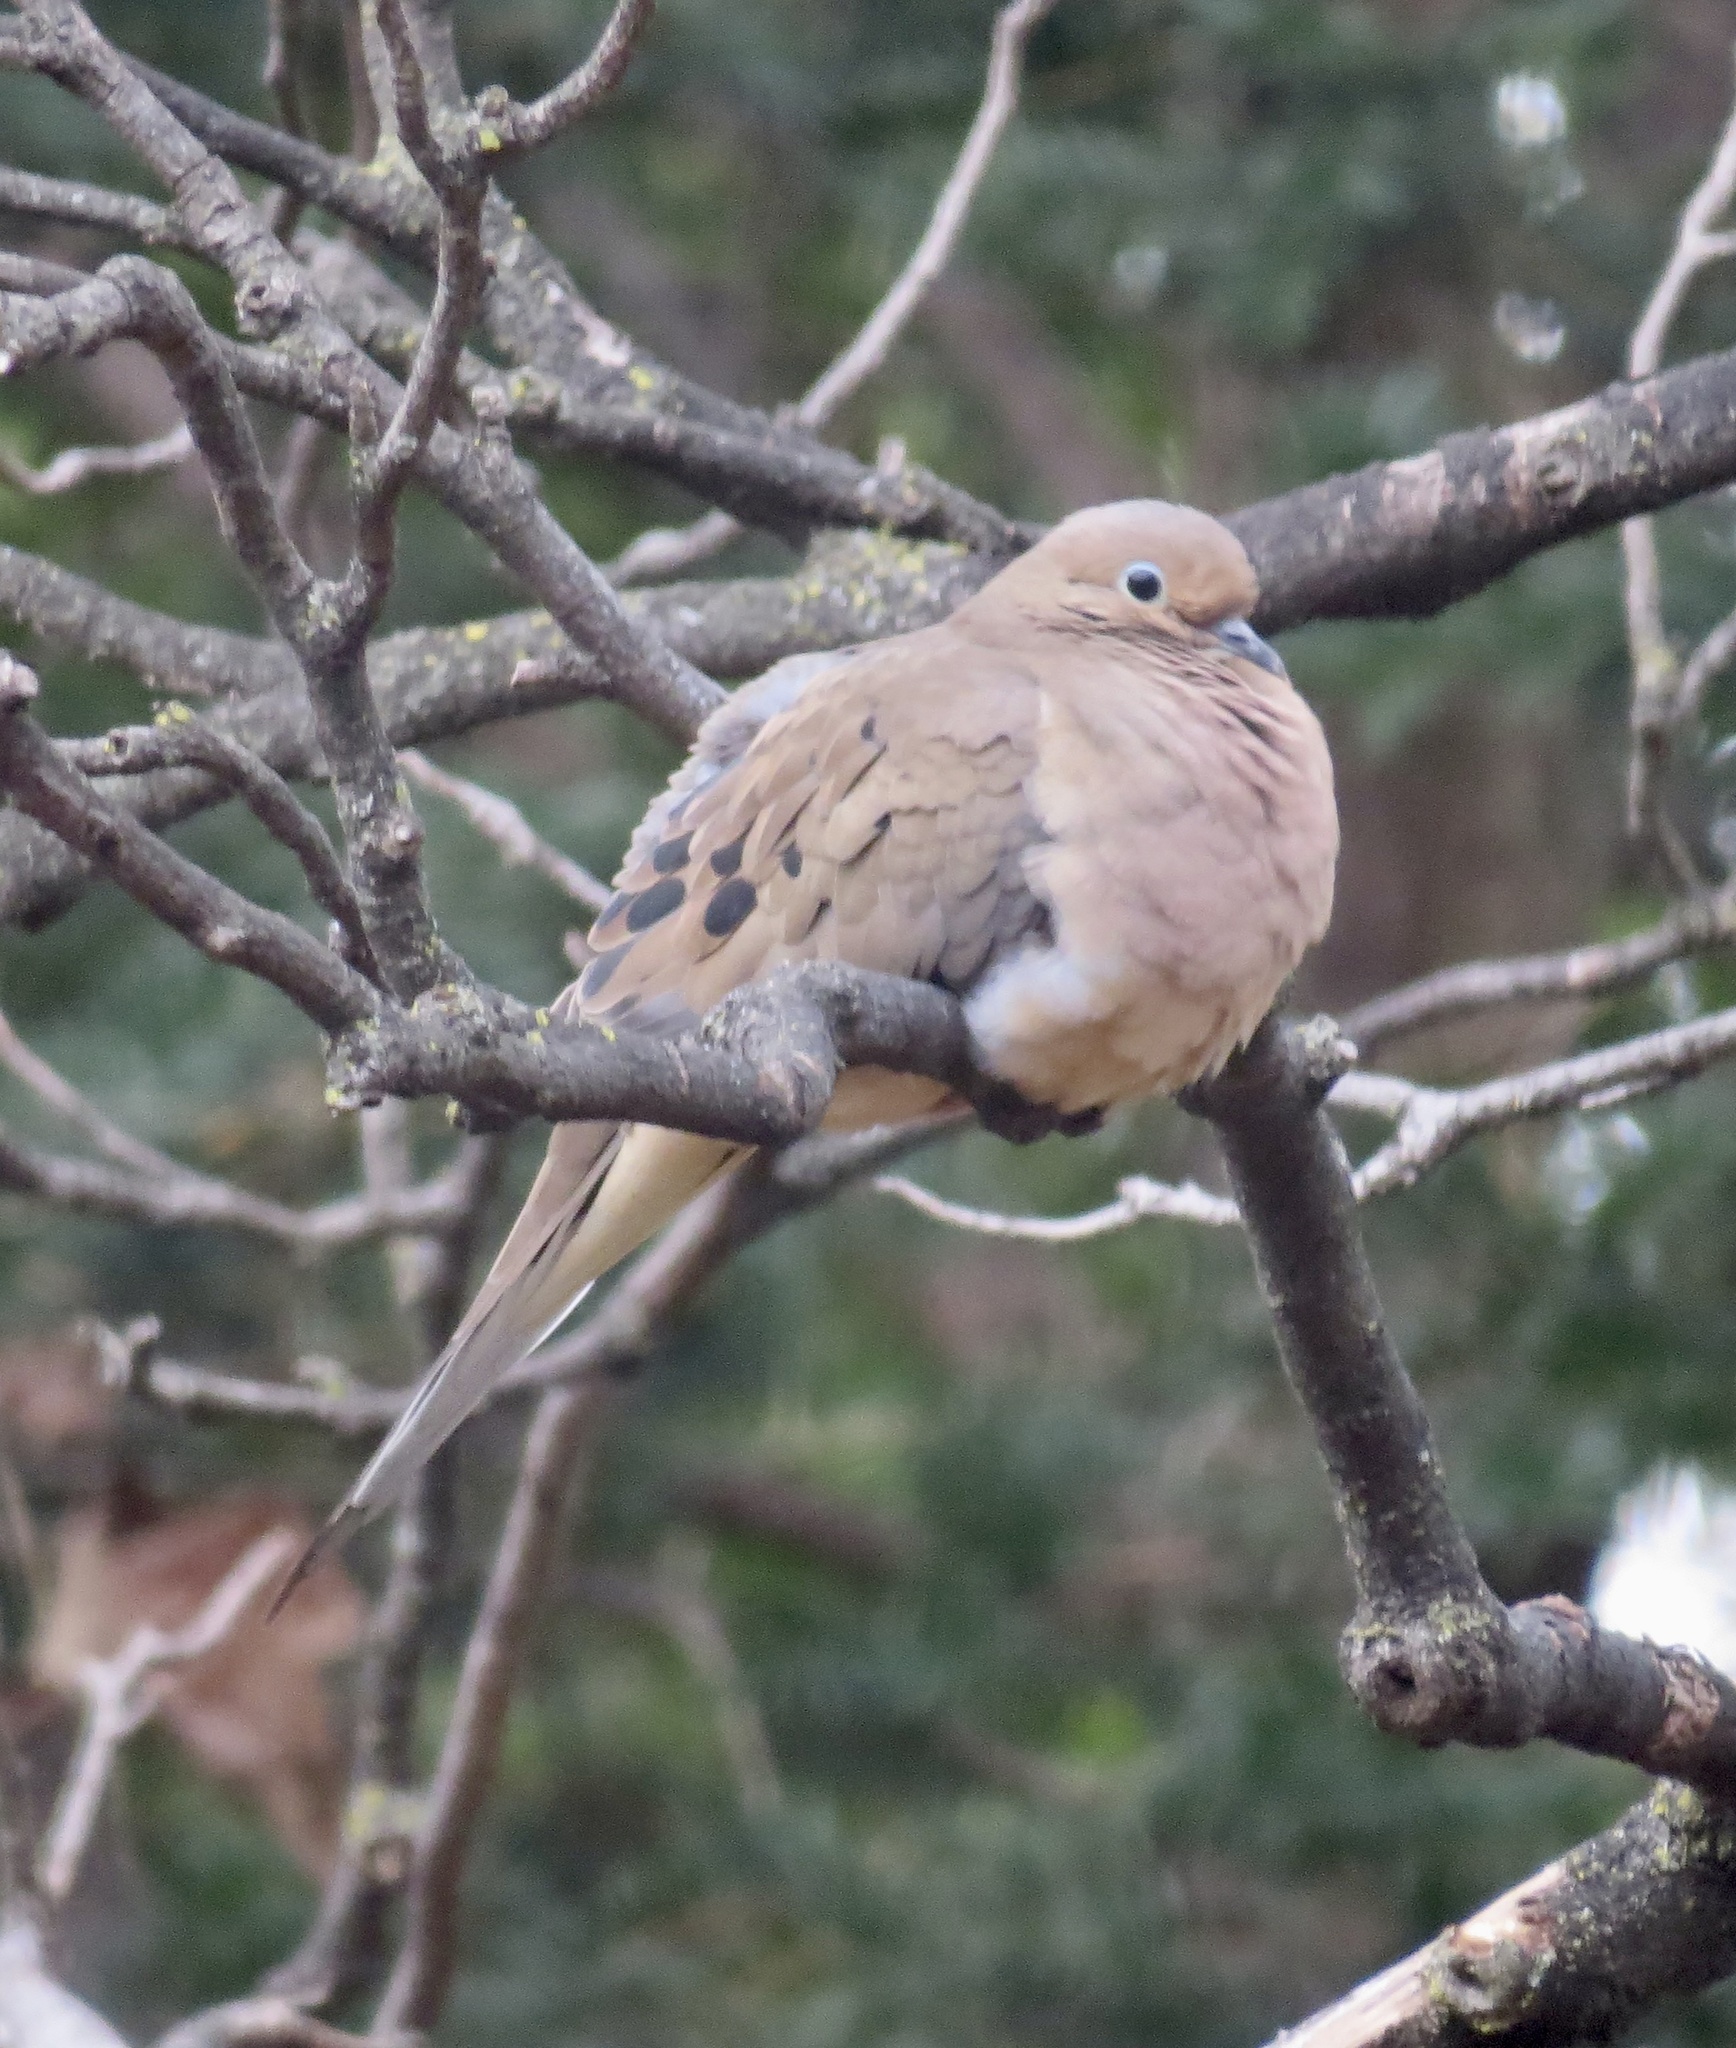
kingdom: Animalia
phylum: Chordata
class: Aves
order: Columbiformes
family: Columbidae
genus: Zenaida
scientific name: Zenaida macroura
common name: Mourning dove
